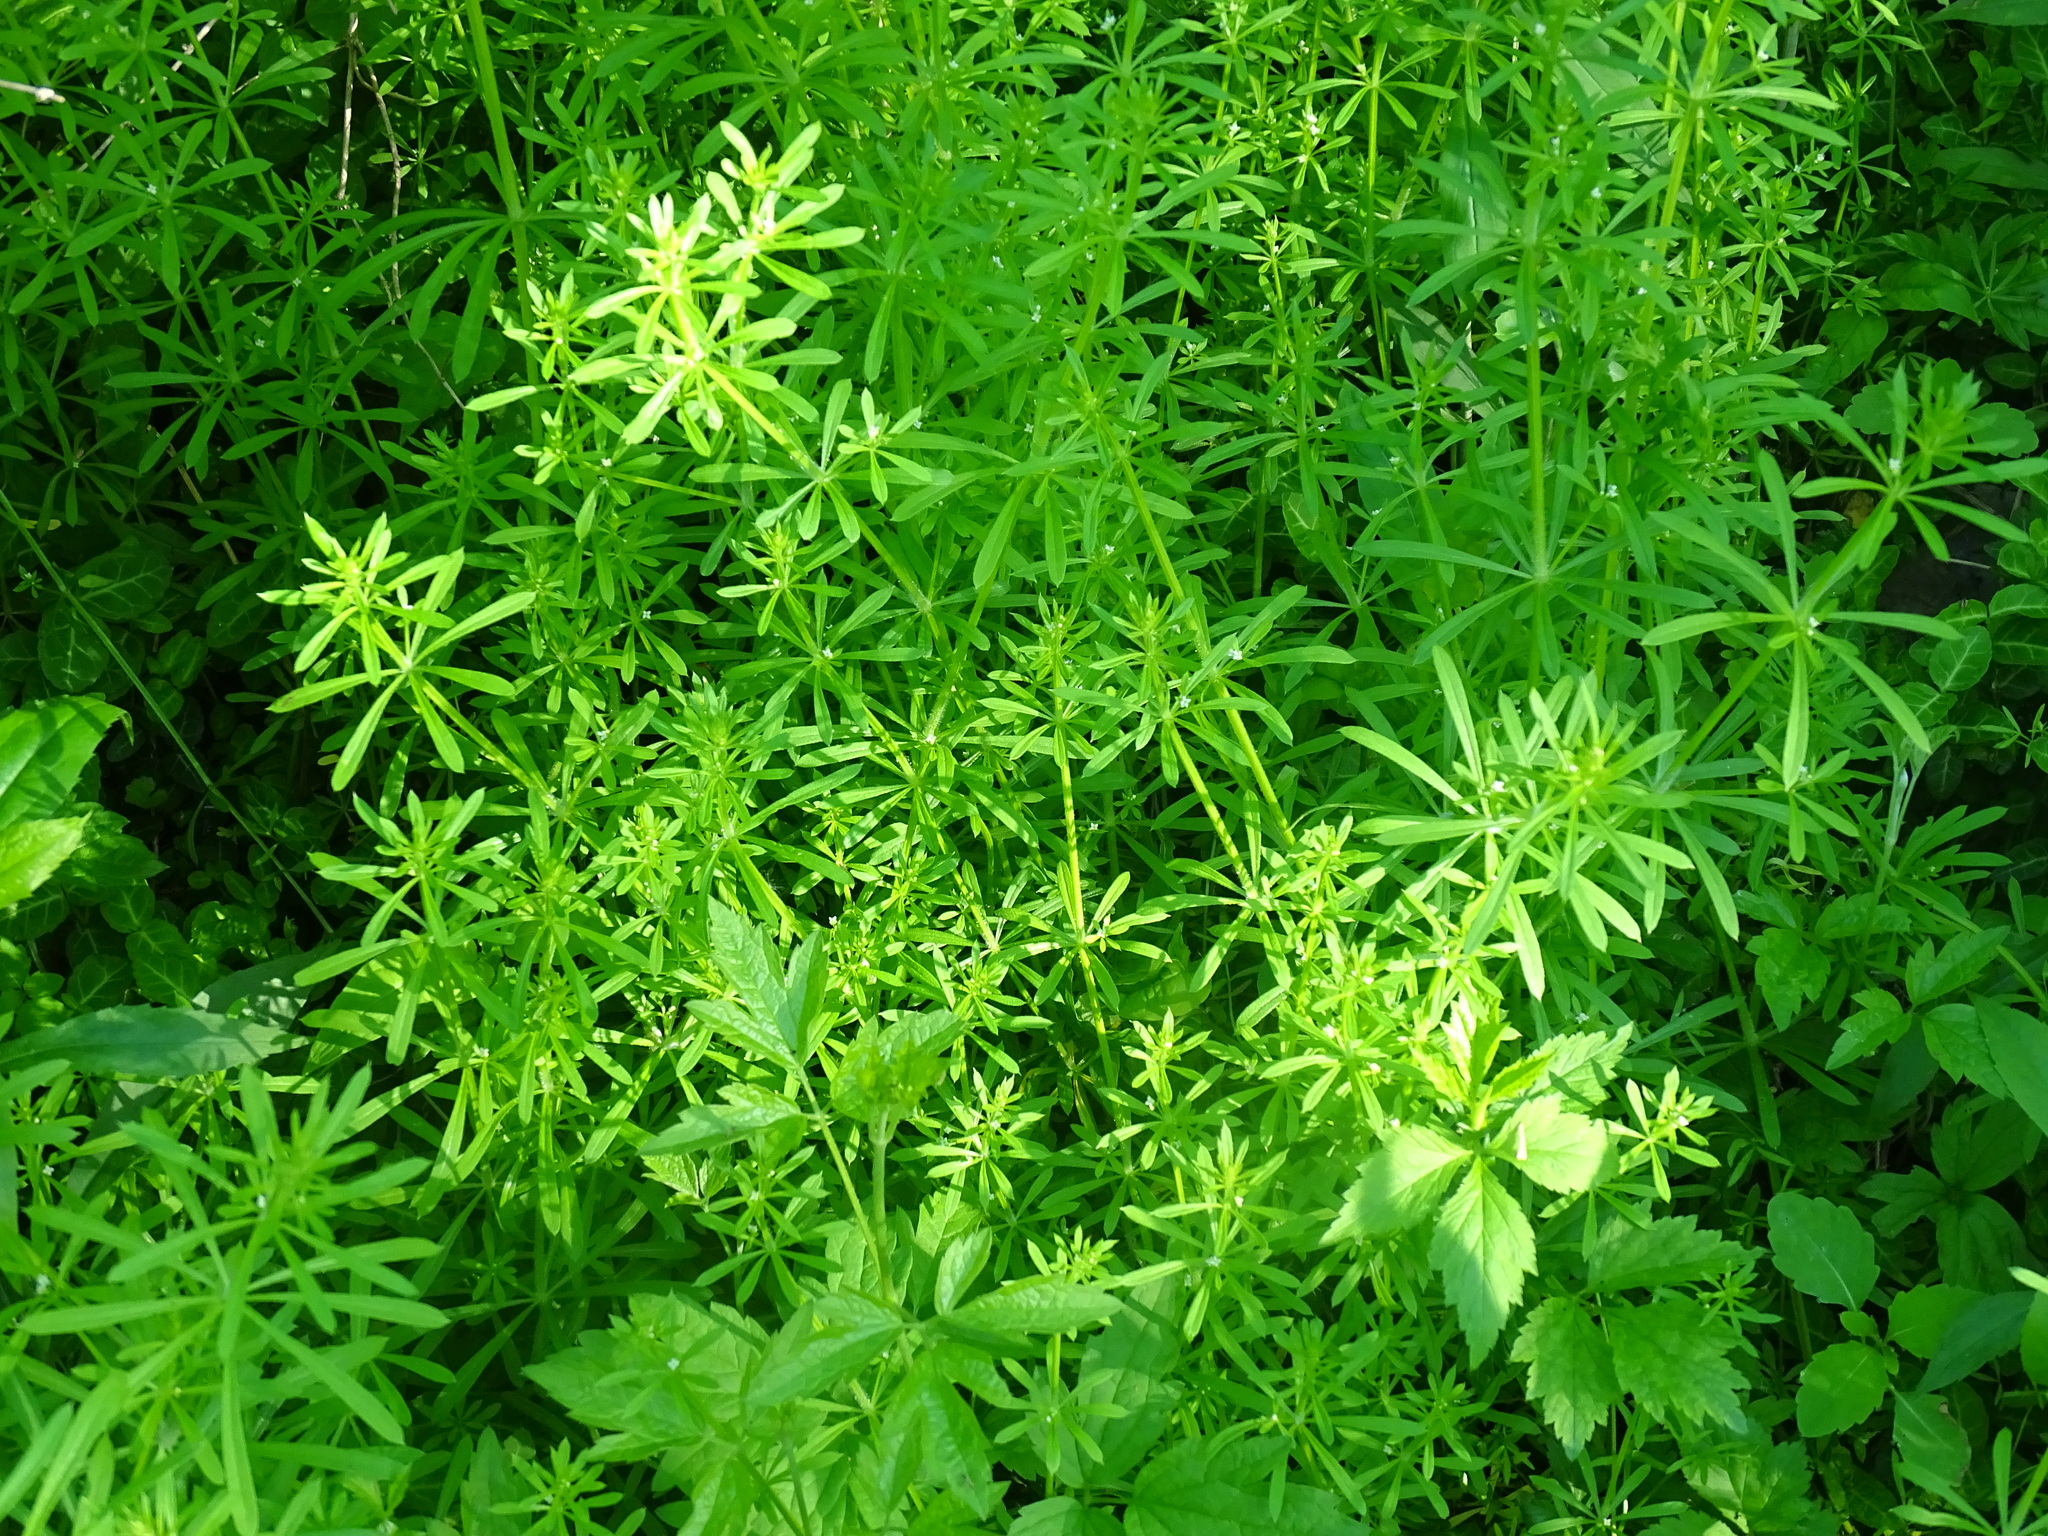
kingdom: Plantae
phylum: Tracheophyta
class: Magnoliopsida
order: Gentianales
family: Rubiaceae
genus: Galium
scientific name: Galium aparine
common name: Cleavers
